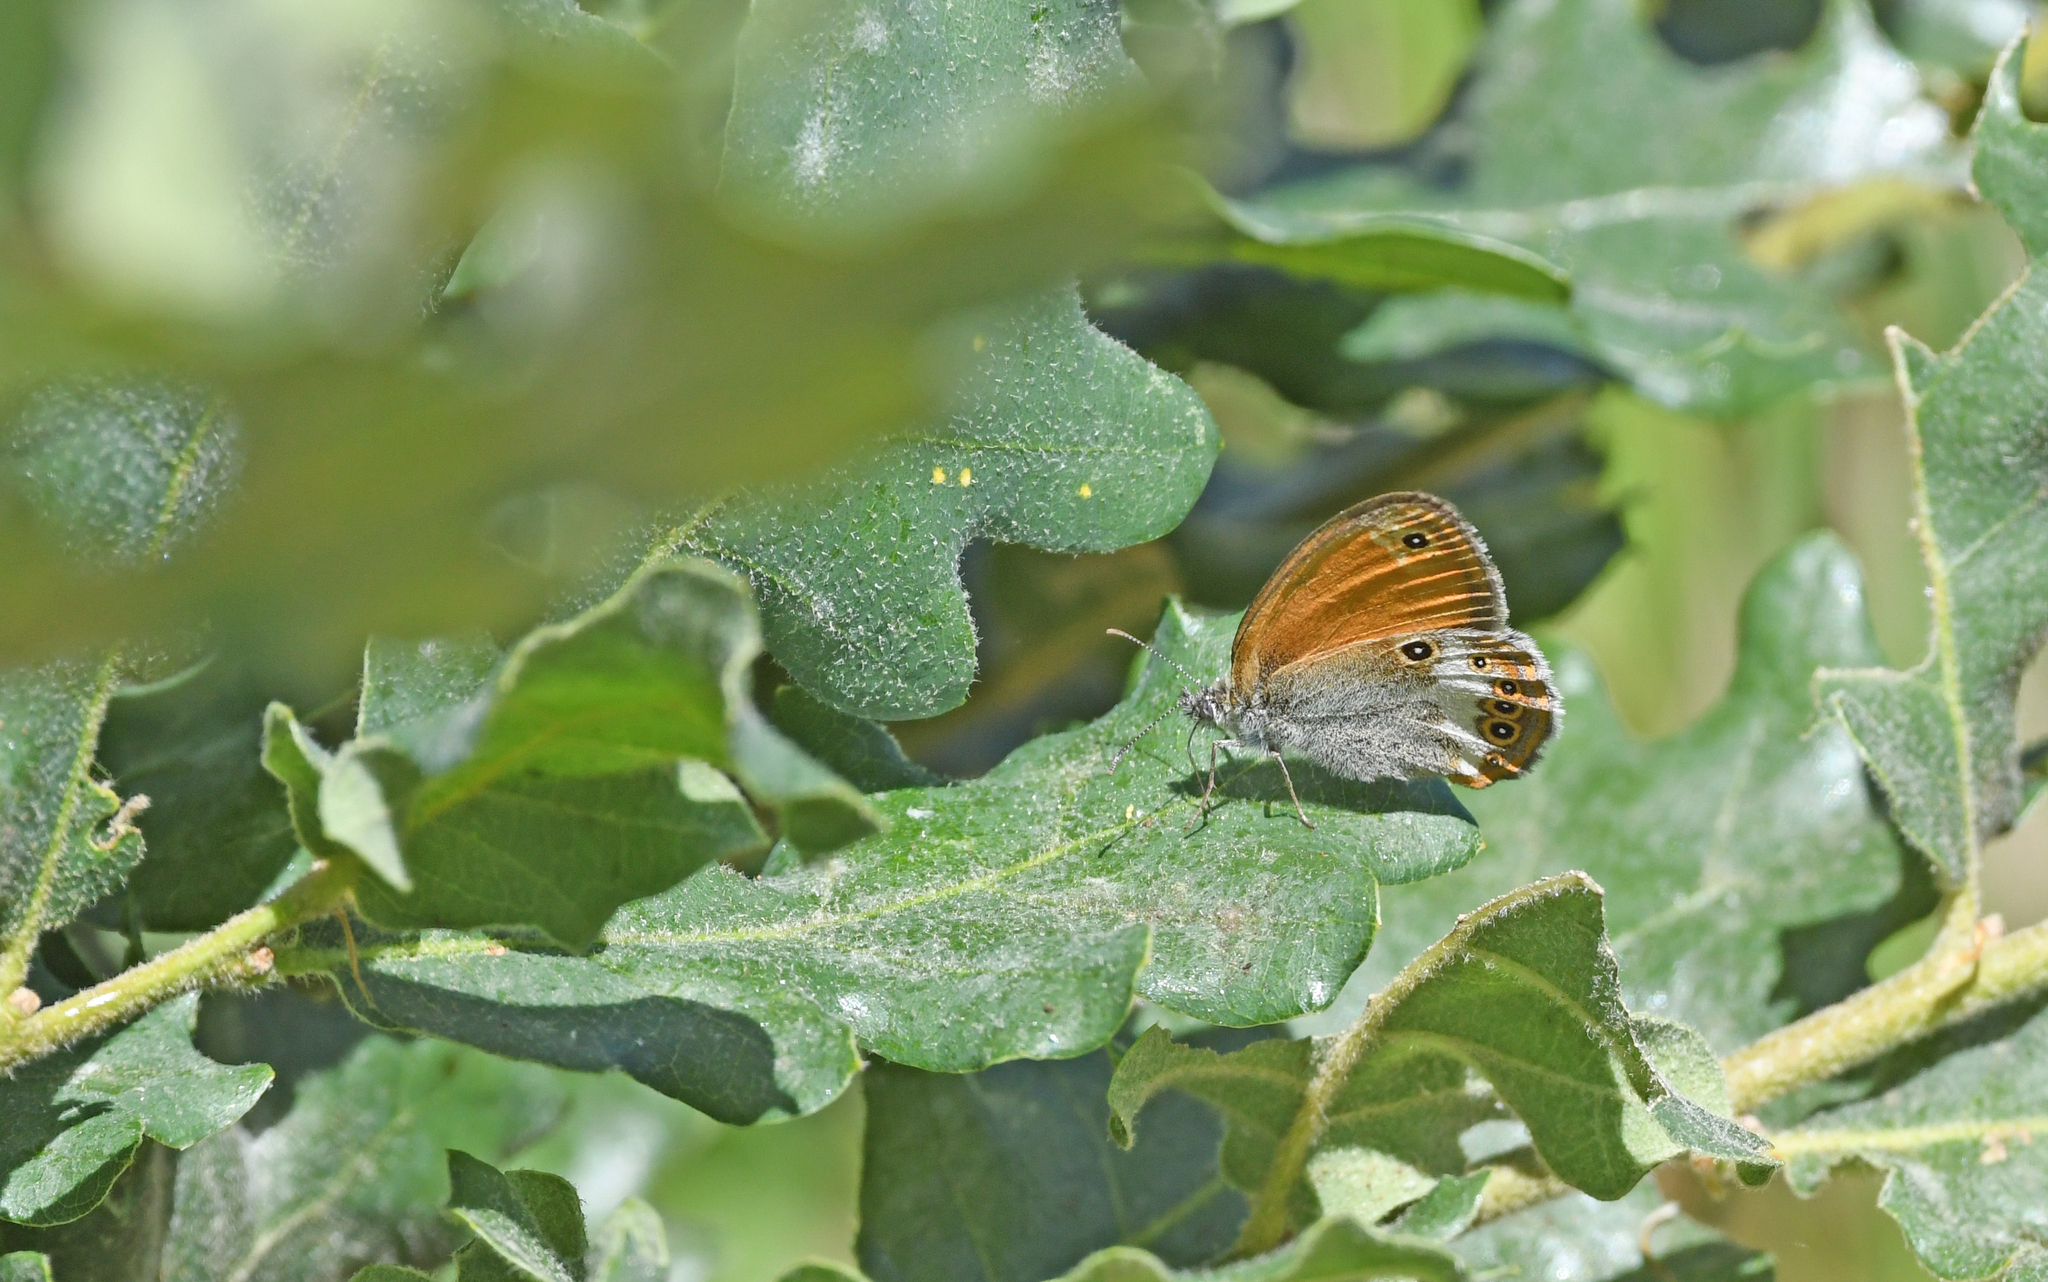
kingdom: Animalia
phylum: Arthropoda
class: Insecta
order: Lepidoptera
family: Nymphalidae
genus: Coenonympha
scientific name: Coenonympha arcania
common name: Pearly heath
